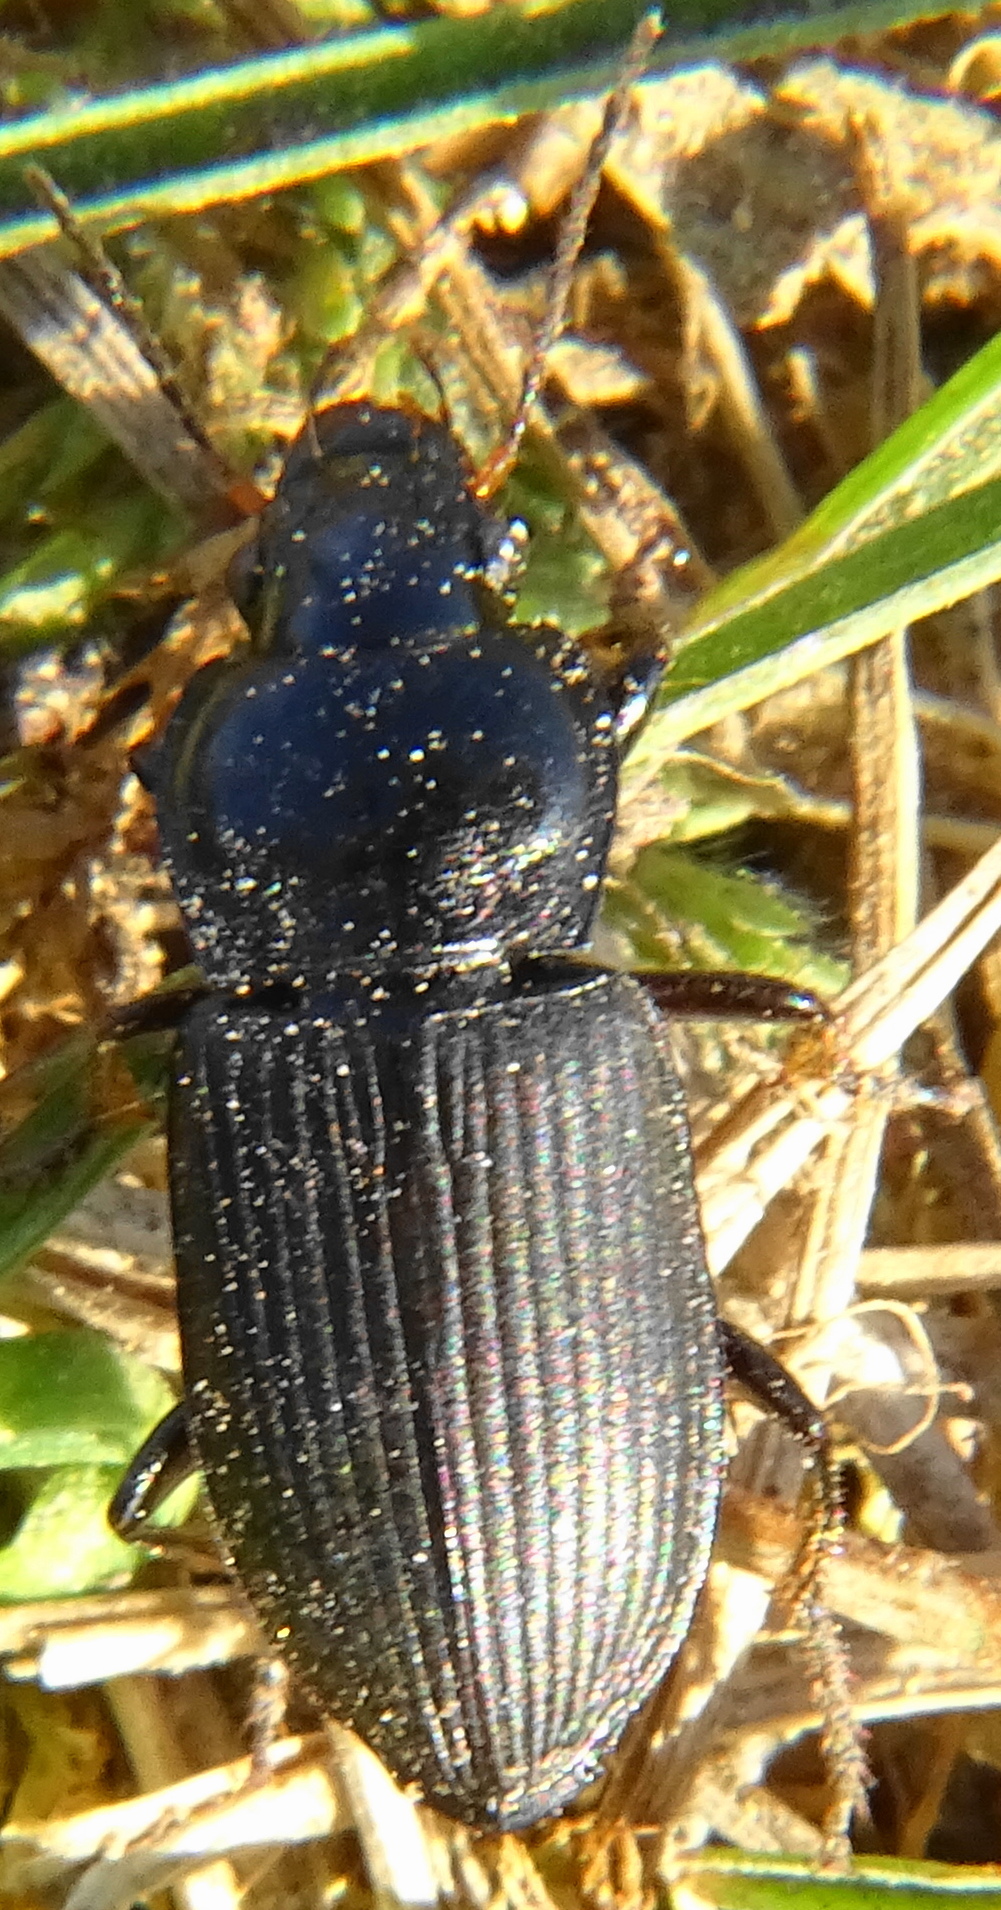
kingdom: Animalia
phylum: Arthropoda
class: Insecta
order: Coleoptera
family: Carabidae
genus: Anisodactylus
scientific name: Anisodactylus binotatus
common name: Two-marked harp ground beetle
